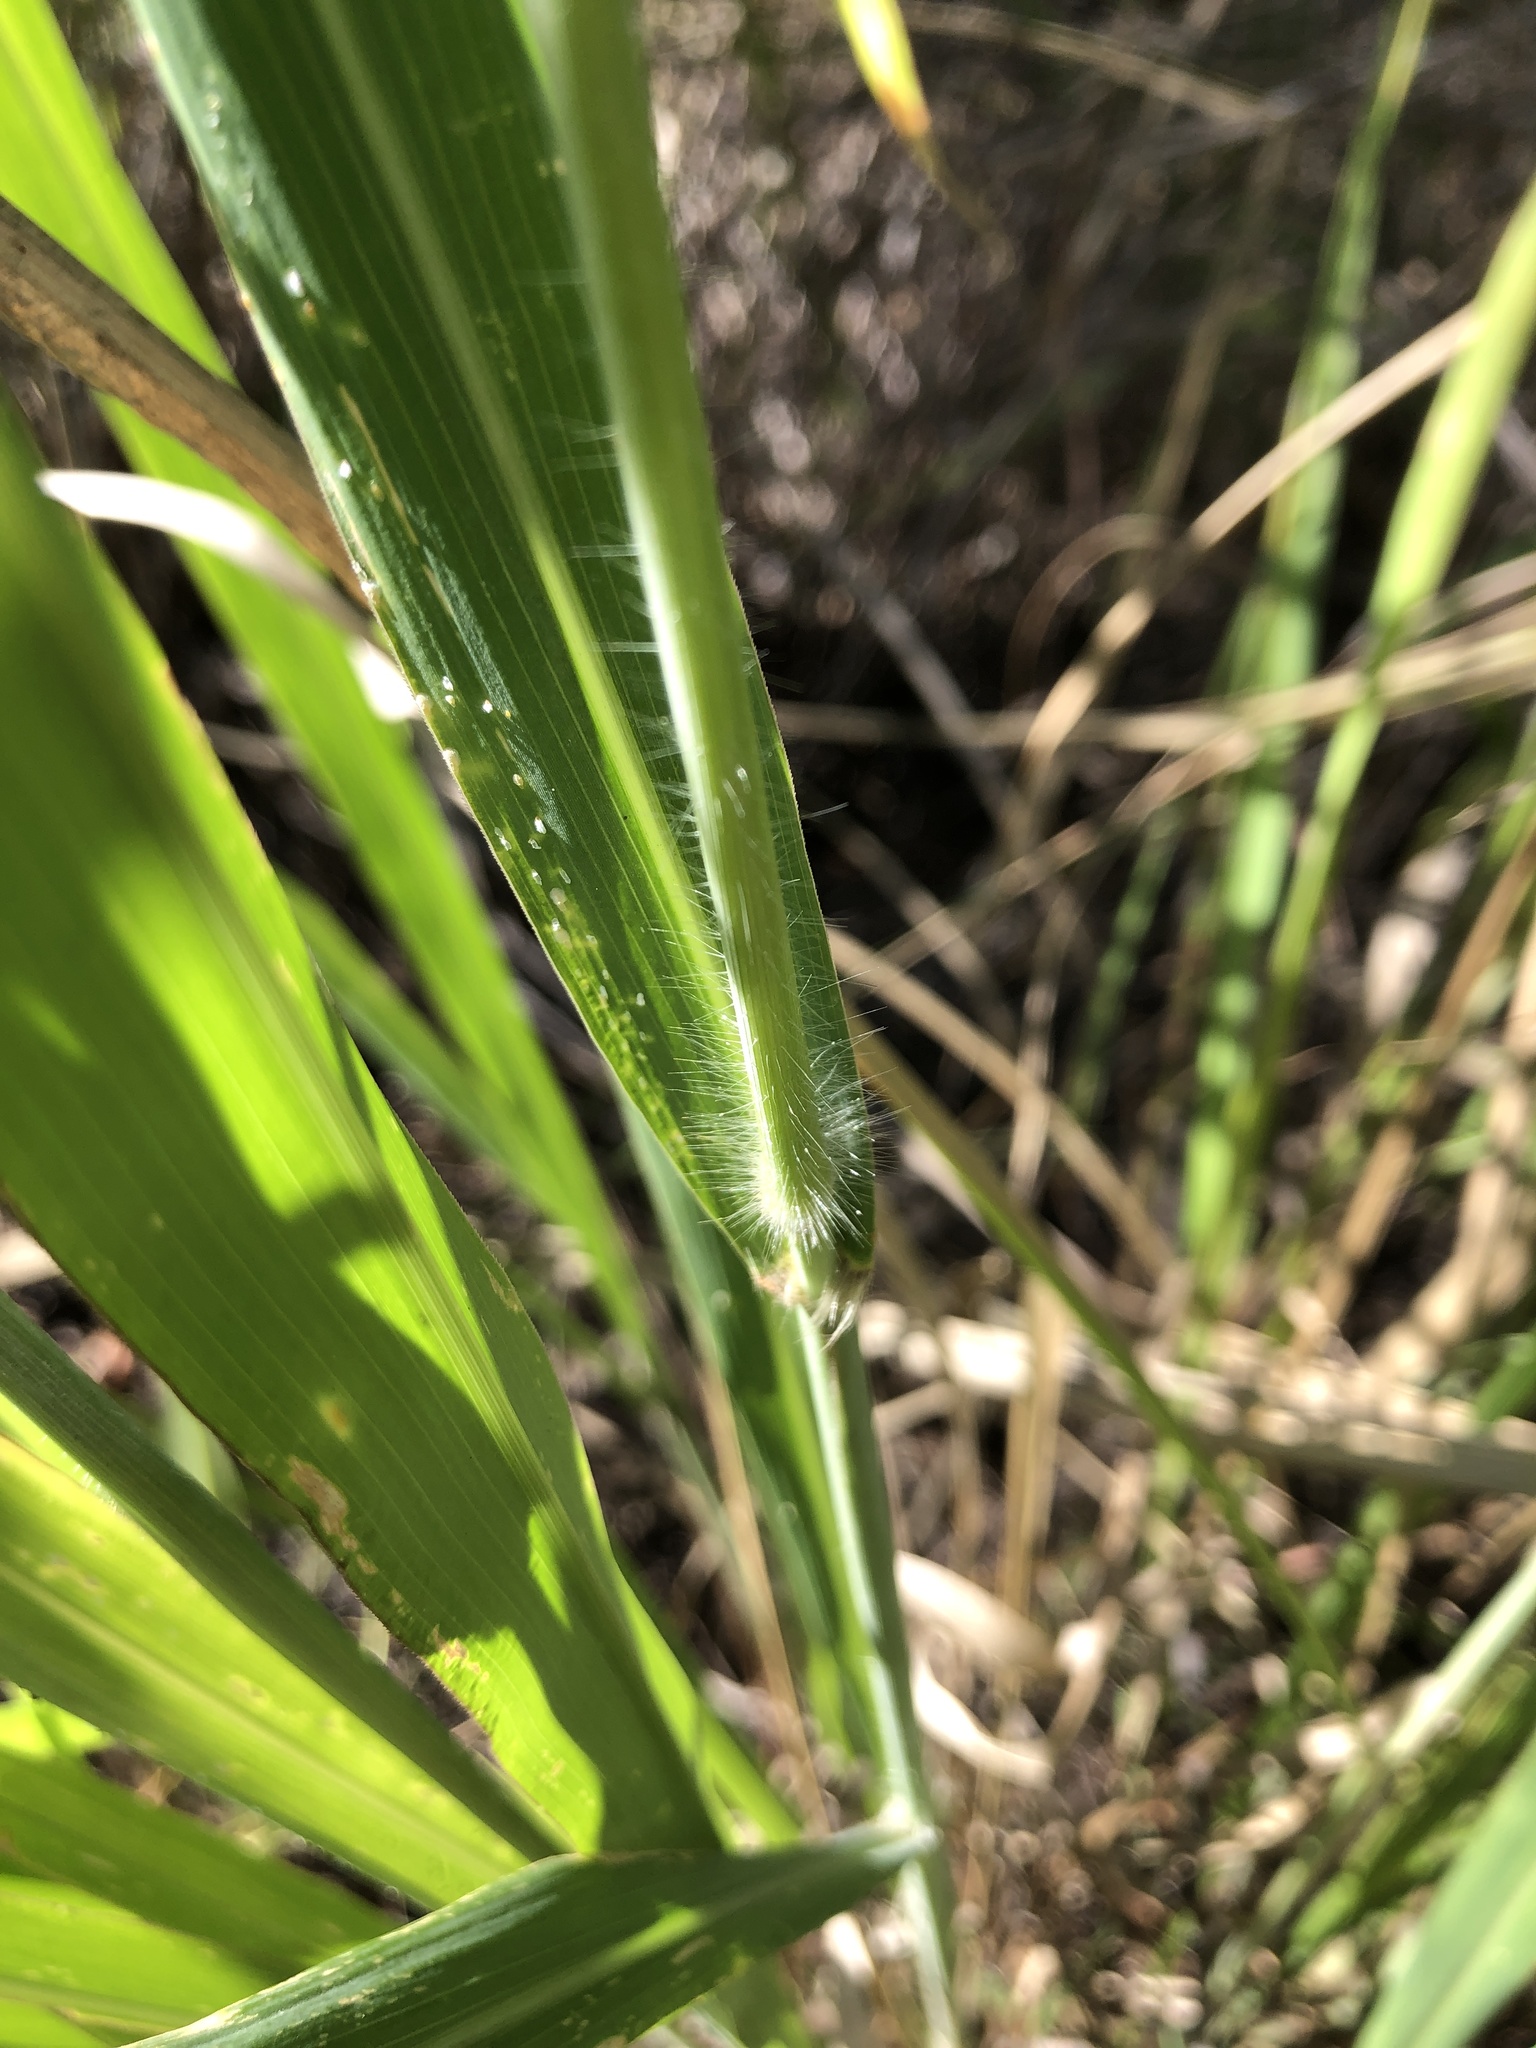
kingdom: Plantae
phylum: Tracheophyta
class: Liliopsida
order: Poales
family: Poaceae
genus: Megathyrsus
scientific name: Megathyrsus maximus
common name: Guineagrass
